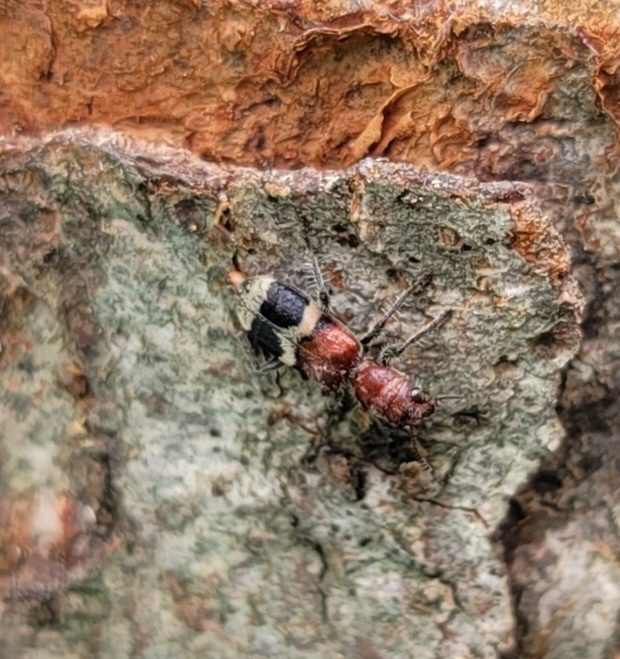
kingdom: Animalia
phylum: Arthropoda
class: Insecta
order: Coleoptera
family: Cleridae
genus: Enoclerus
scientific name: Enoclerus nigripes
